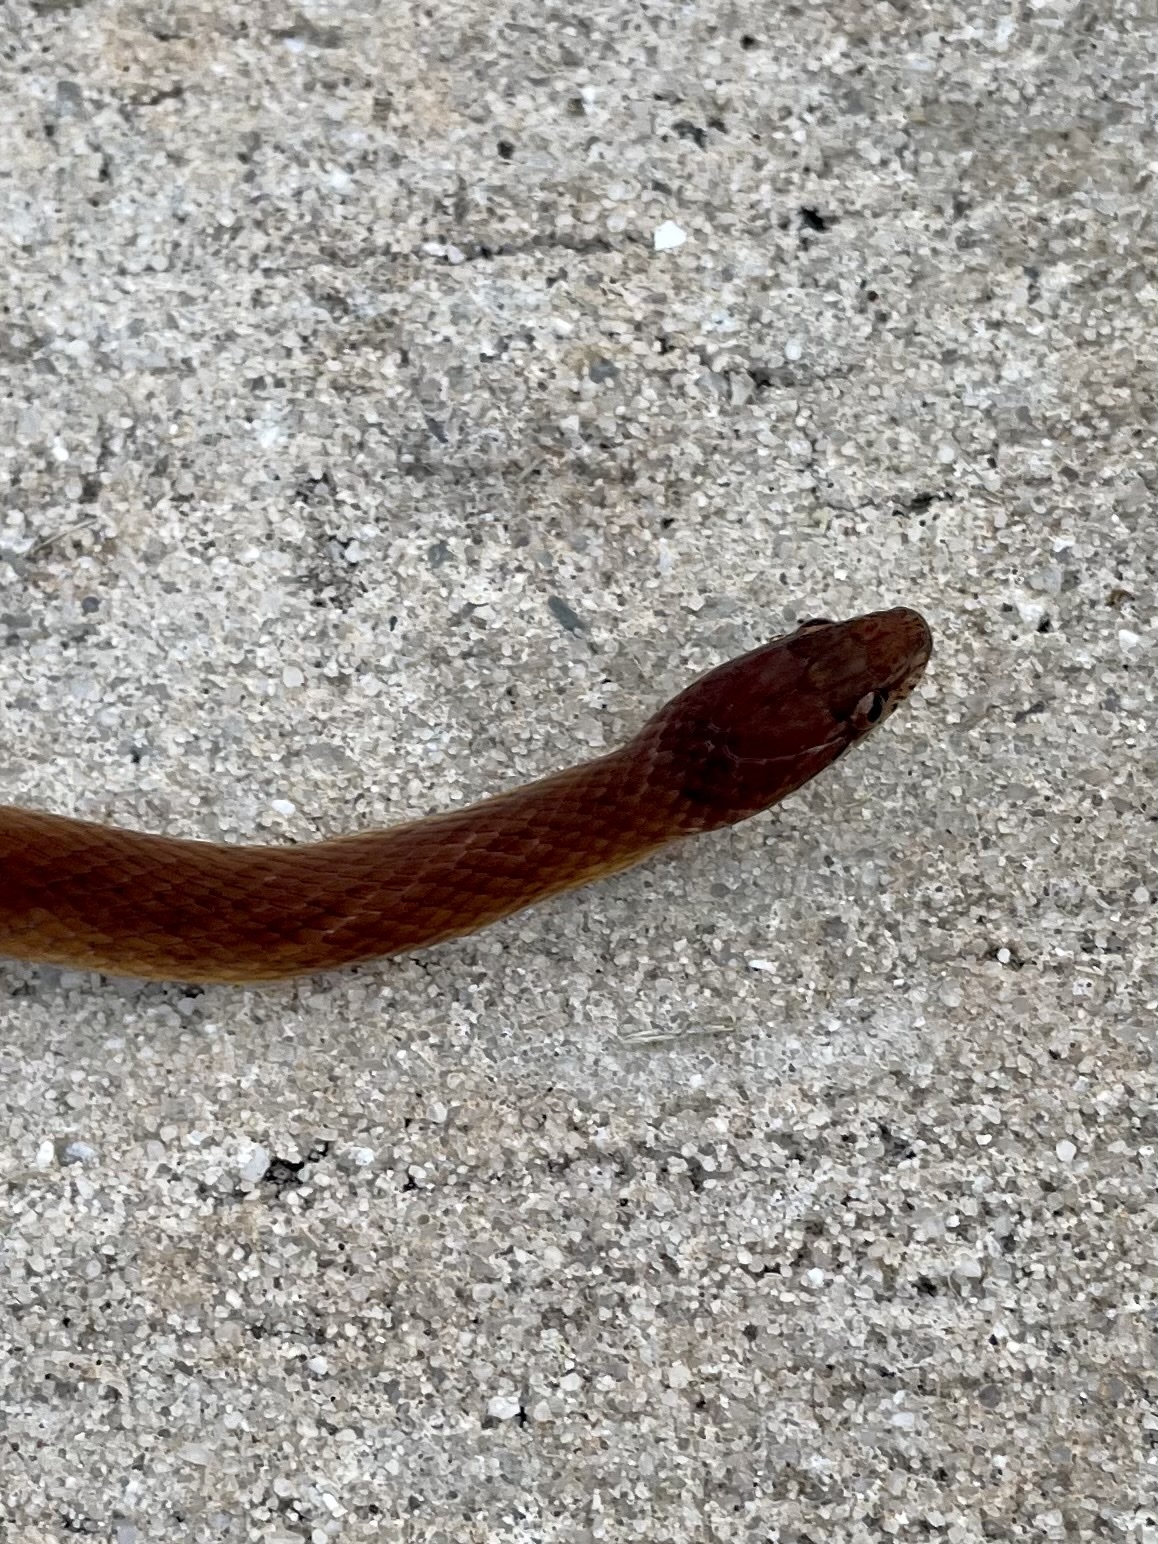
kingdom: Animalia
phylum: Chordata
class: Squamata
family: Colubridae
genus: Rhadinaea
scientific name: Rhadinaea flavilata
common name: Pine woods littersnake
